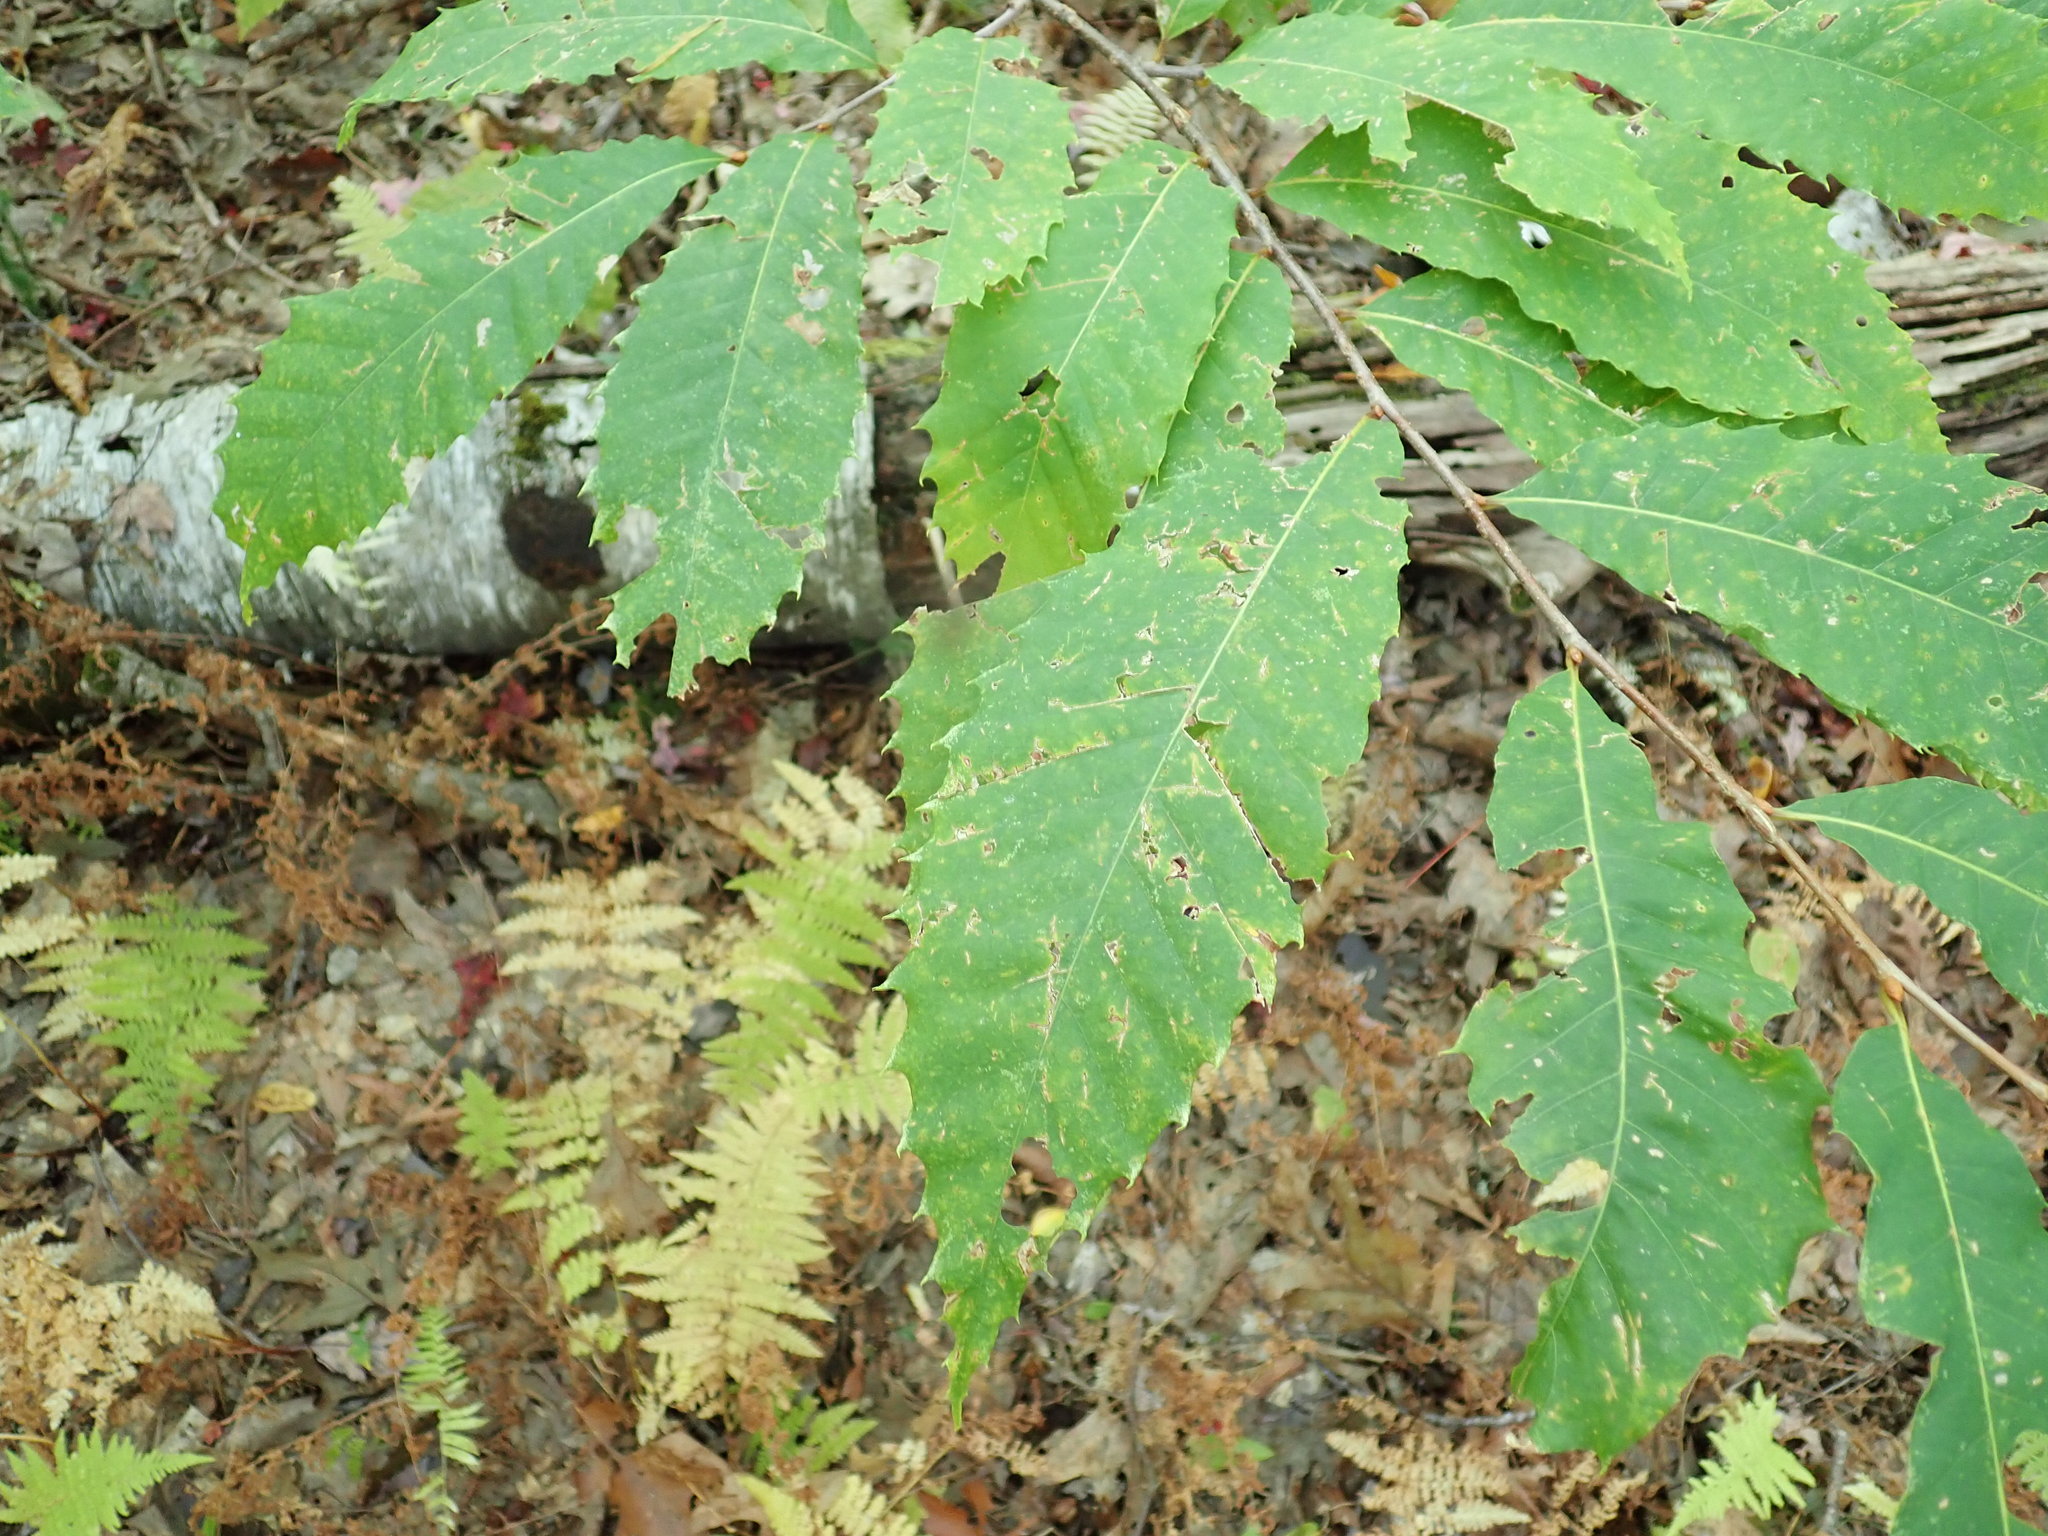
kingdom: Plantae
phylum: Tracheophyta
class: Magnoliopsida
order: Fagales
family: Fagaceae
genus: Castanea
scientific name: Castanea dentata
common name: American chestnut
